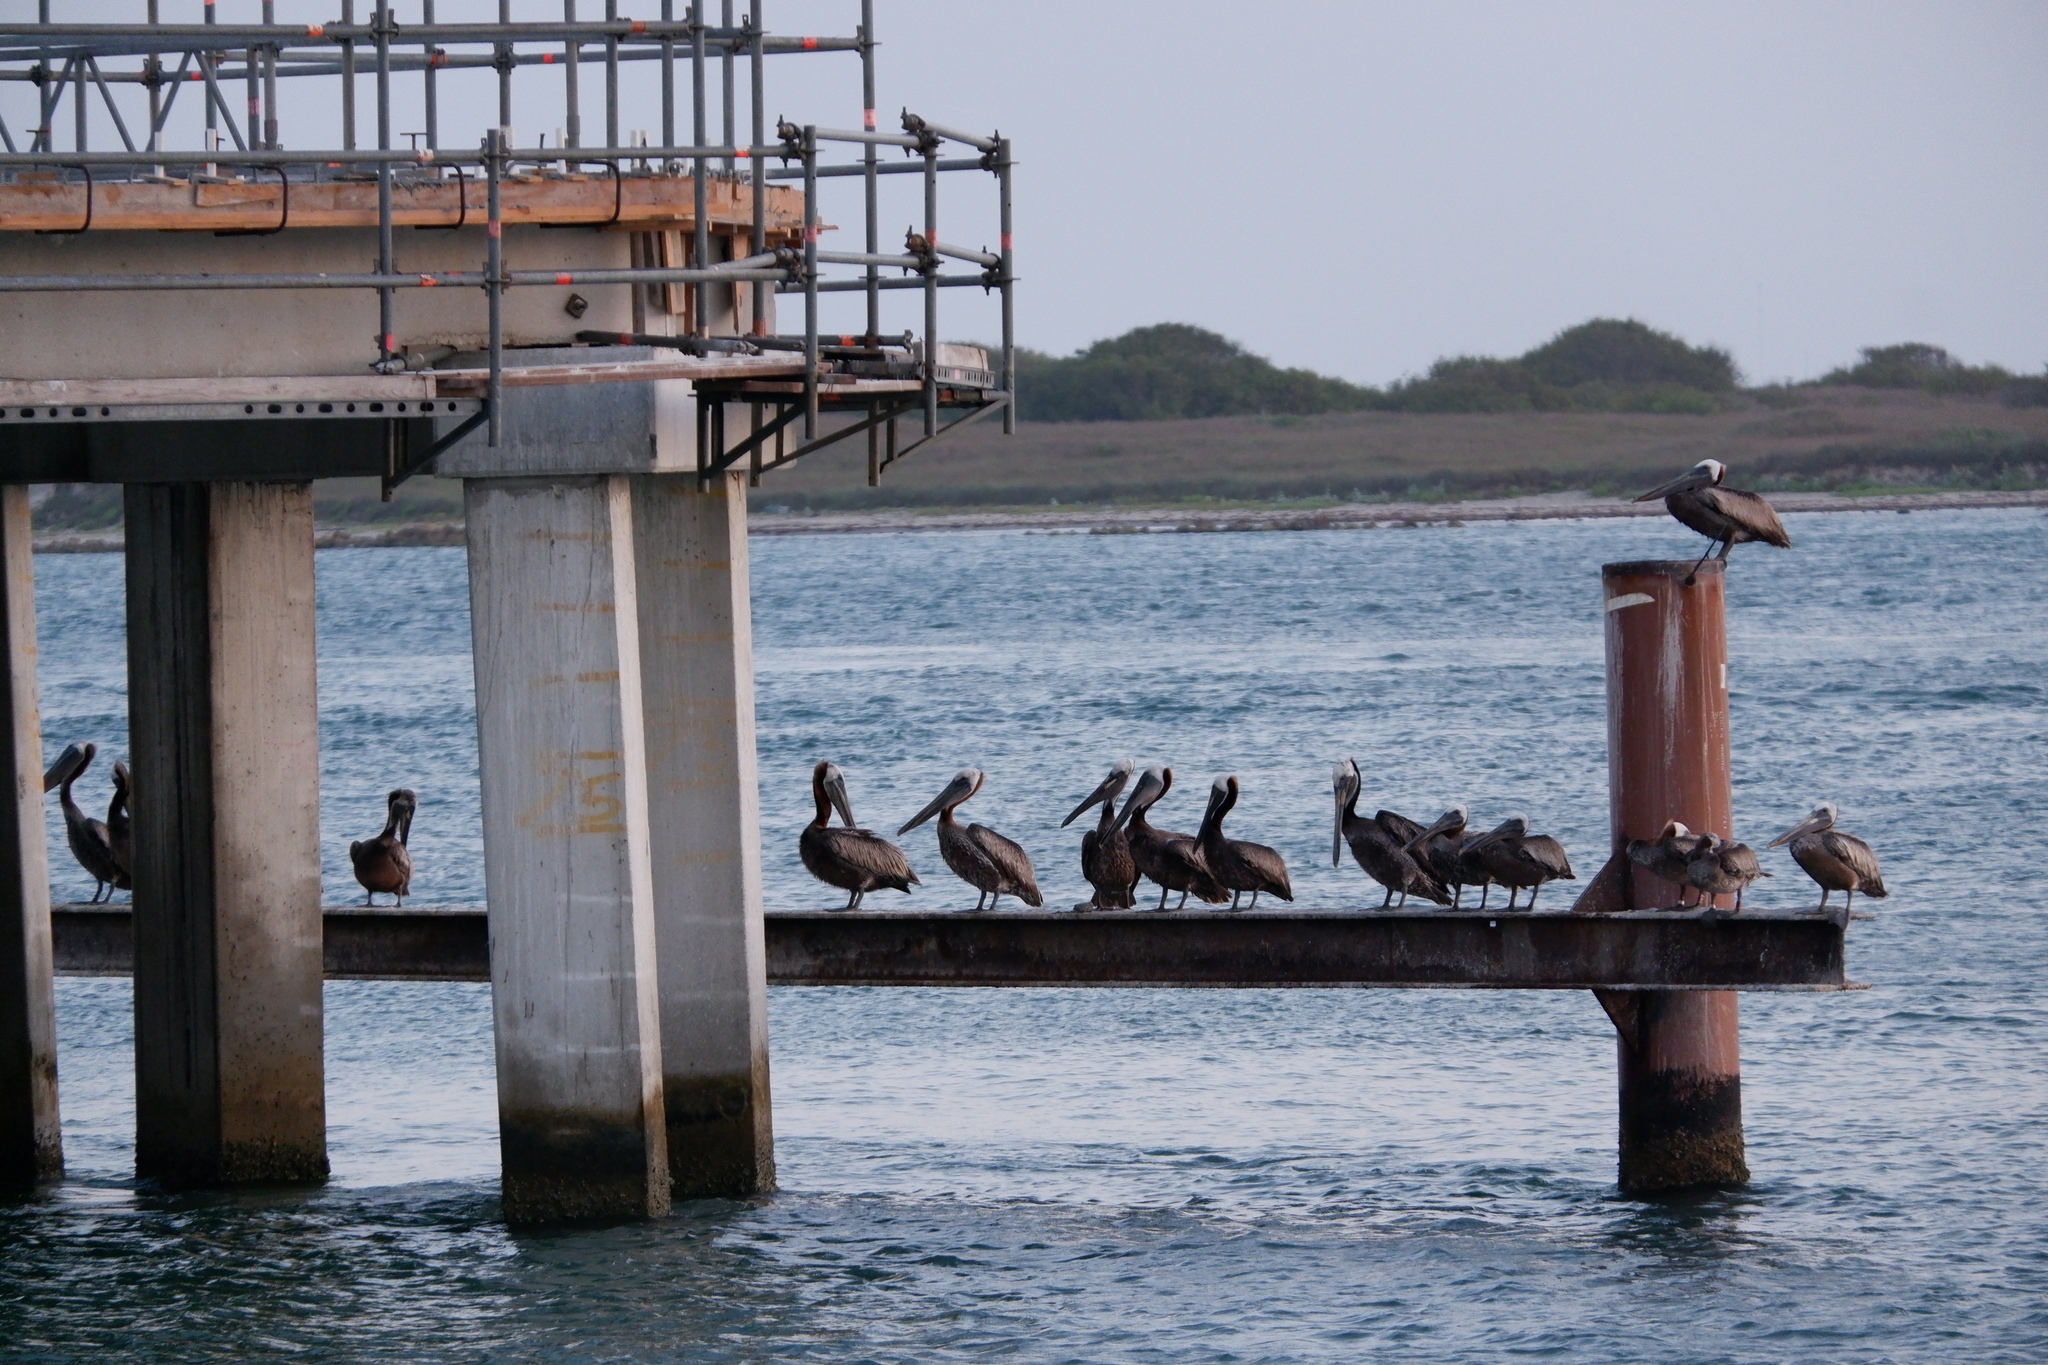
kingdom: Animalia
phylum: Chordata
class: Aves
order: Pelecaniformes
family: Pelecanidae
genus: Pelecanus
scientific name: Pelecanus occidentalis
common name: Brown pelican
